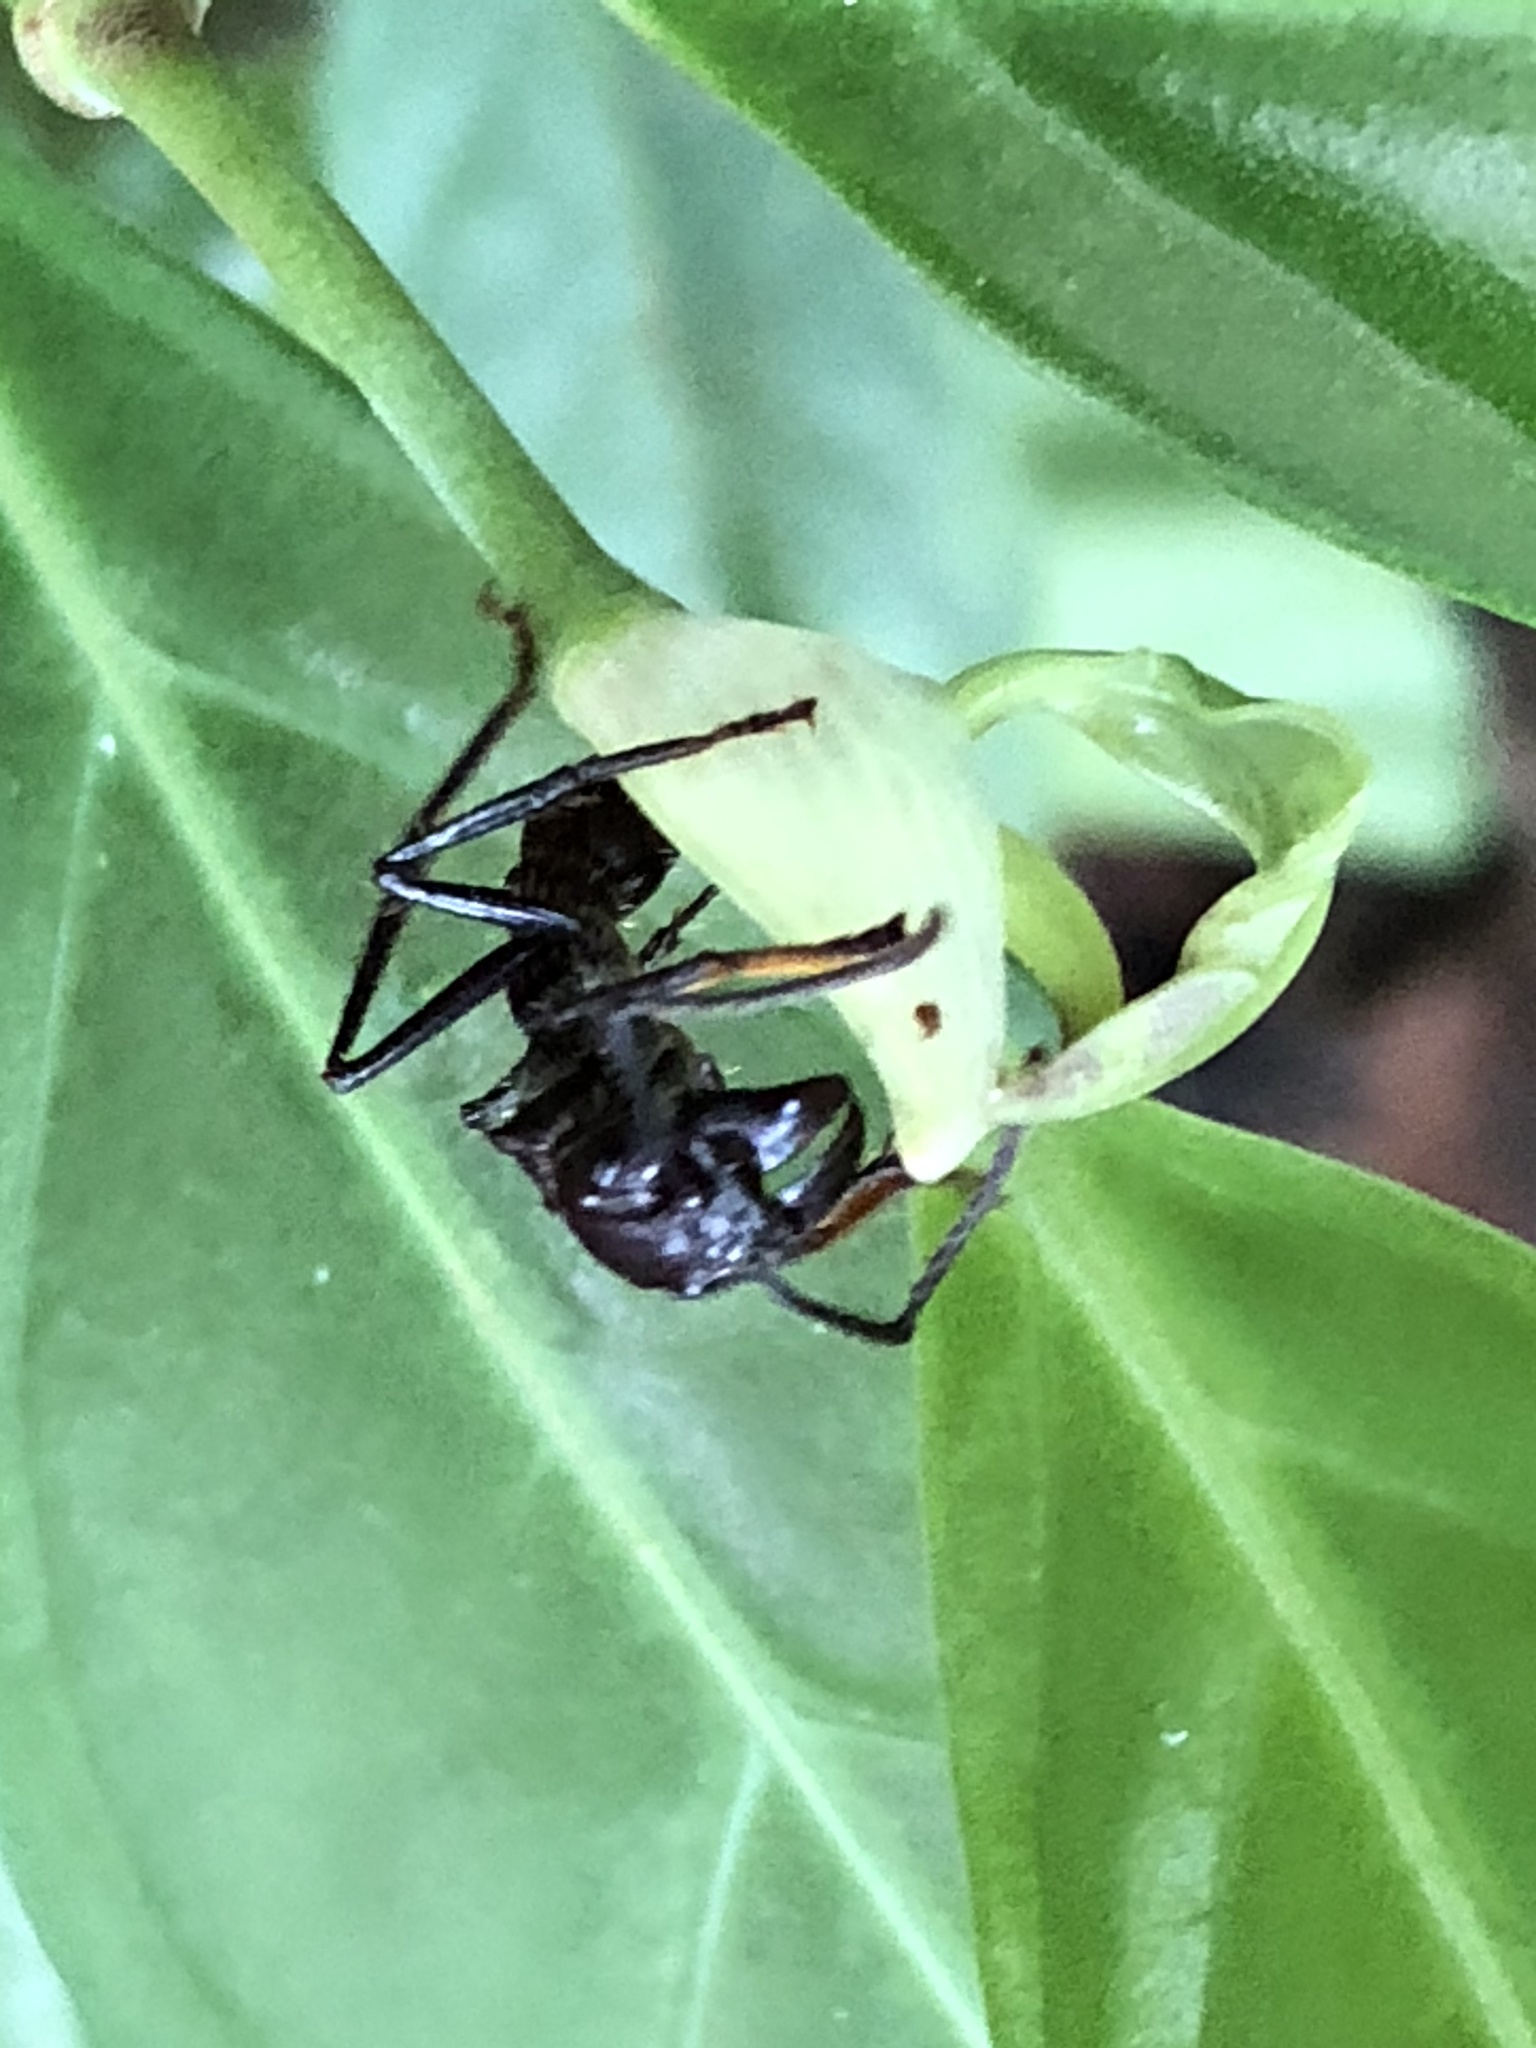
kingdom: Animalia
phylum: Arthropoda
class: Insecta
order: Hymenoptera
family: Formicidae
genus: Paraponera
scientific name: Paraponera clavata
